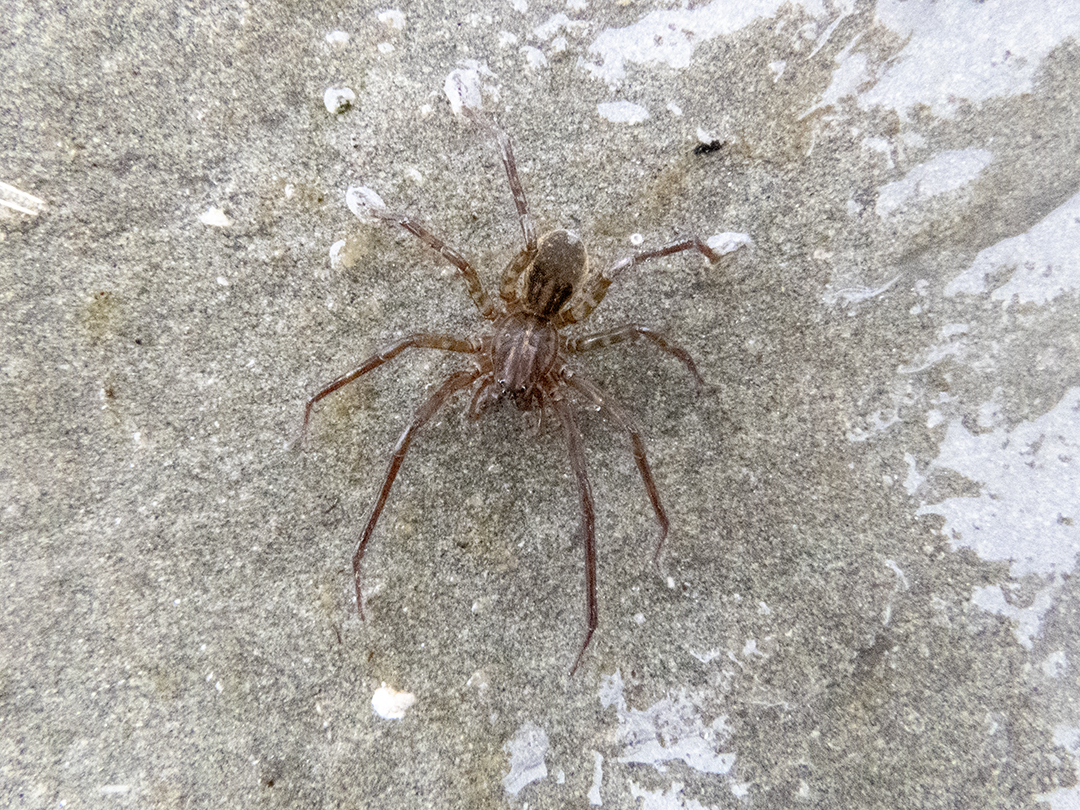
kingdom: Animalia
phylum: Arthropoda
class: Arachnida
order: Araneae
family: Lycosidae
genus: Allotrochosina
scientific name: Allotrochosina schauinslandi
